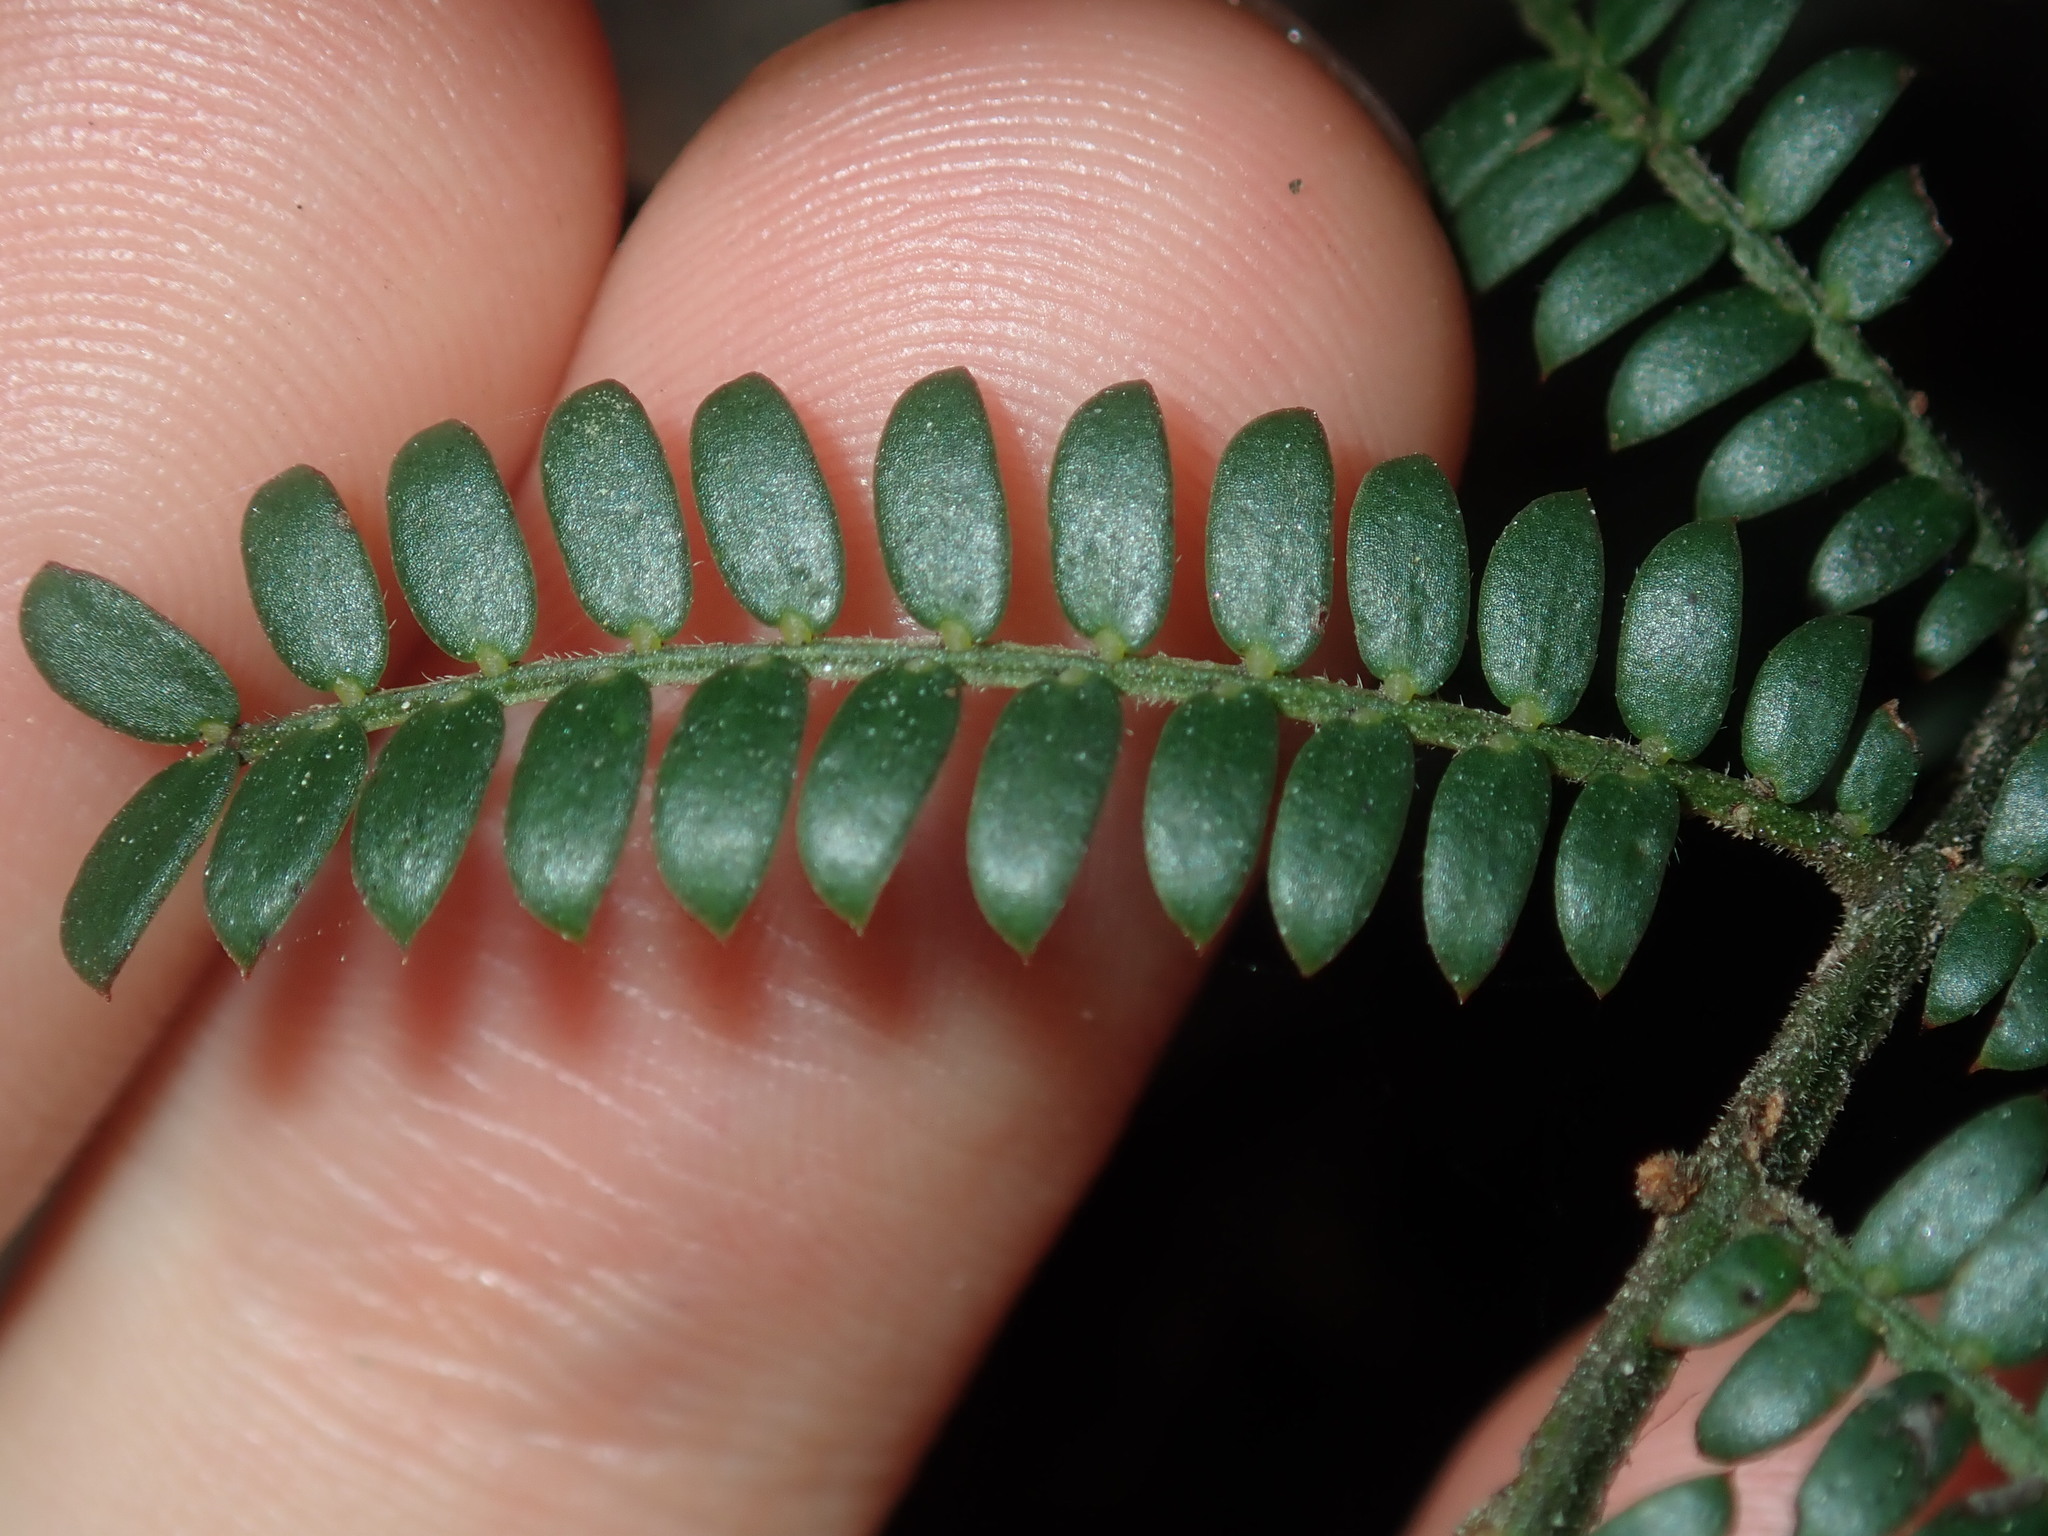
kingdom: Plantae
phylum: Tracheophyta
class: Magnoliopsida
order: Fabales
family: Fabaceae
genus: Acacia
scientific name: Acacia terminalis
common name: Cedar wattle
